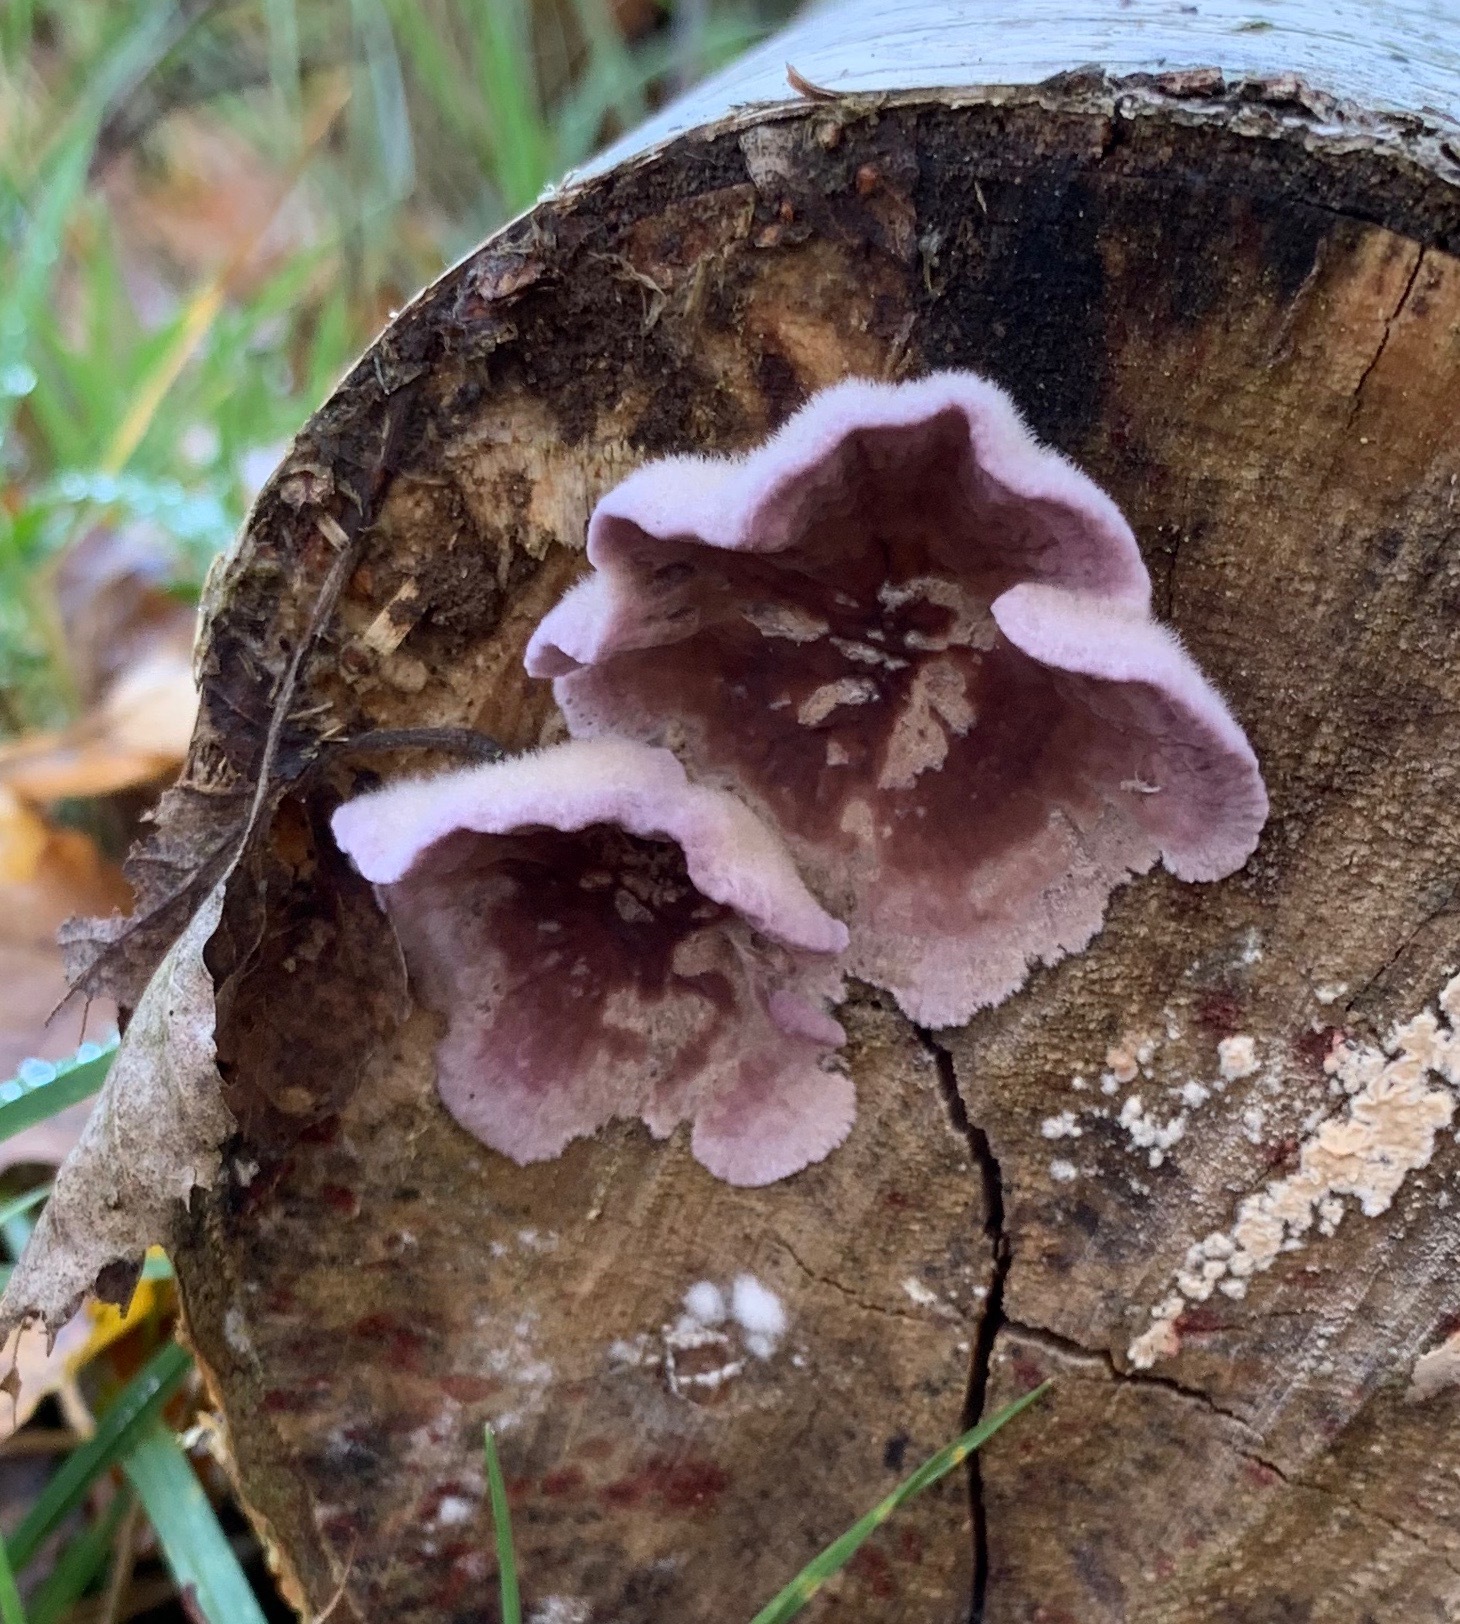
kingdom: Fungi
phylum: Basidiomycota
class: Agaricomycetes
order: Agaricales
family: Cyphellaceae
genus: Chondrostereum
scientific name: Chondrostereum purpureum
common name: Silver leaf disease
